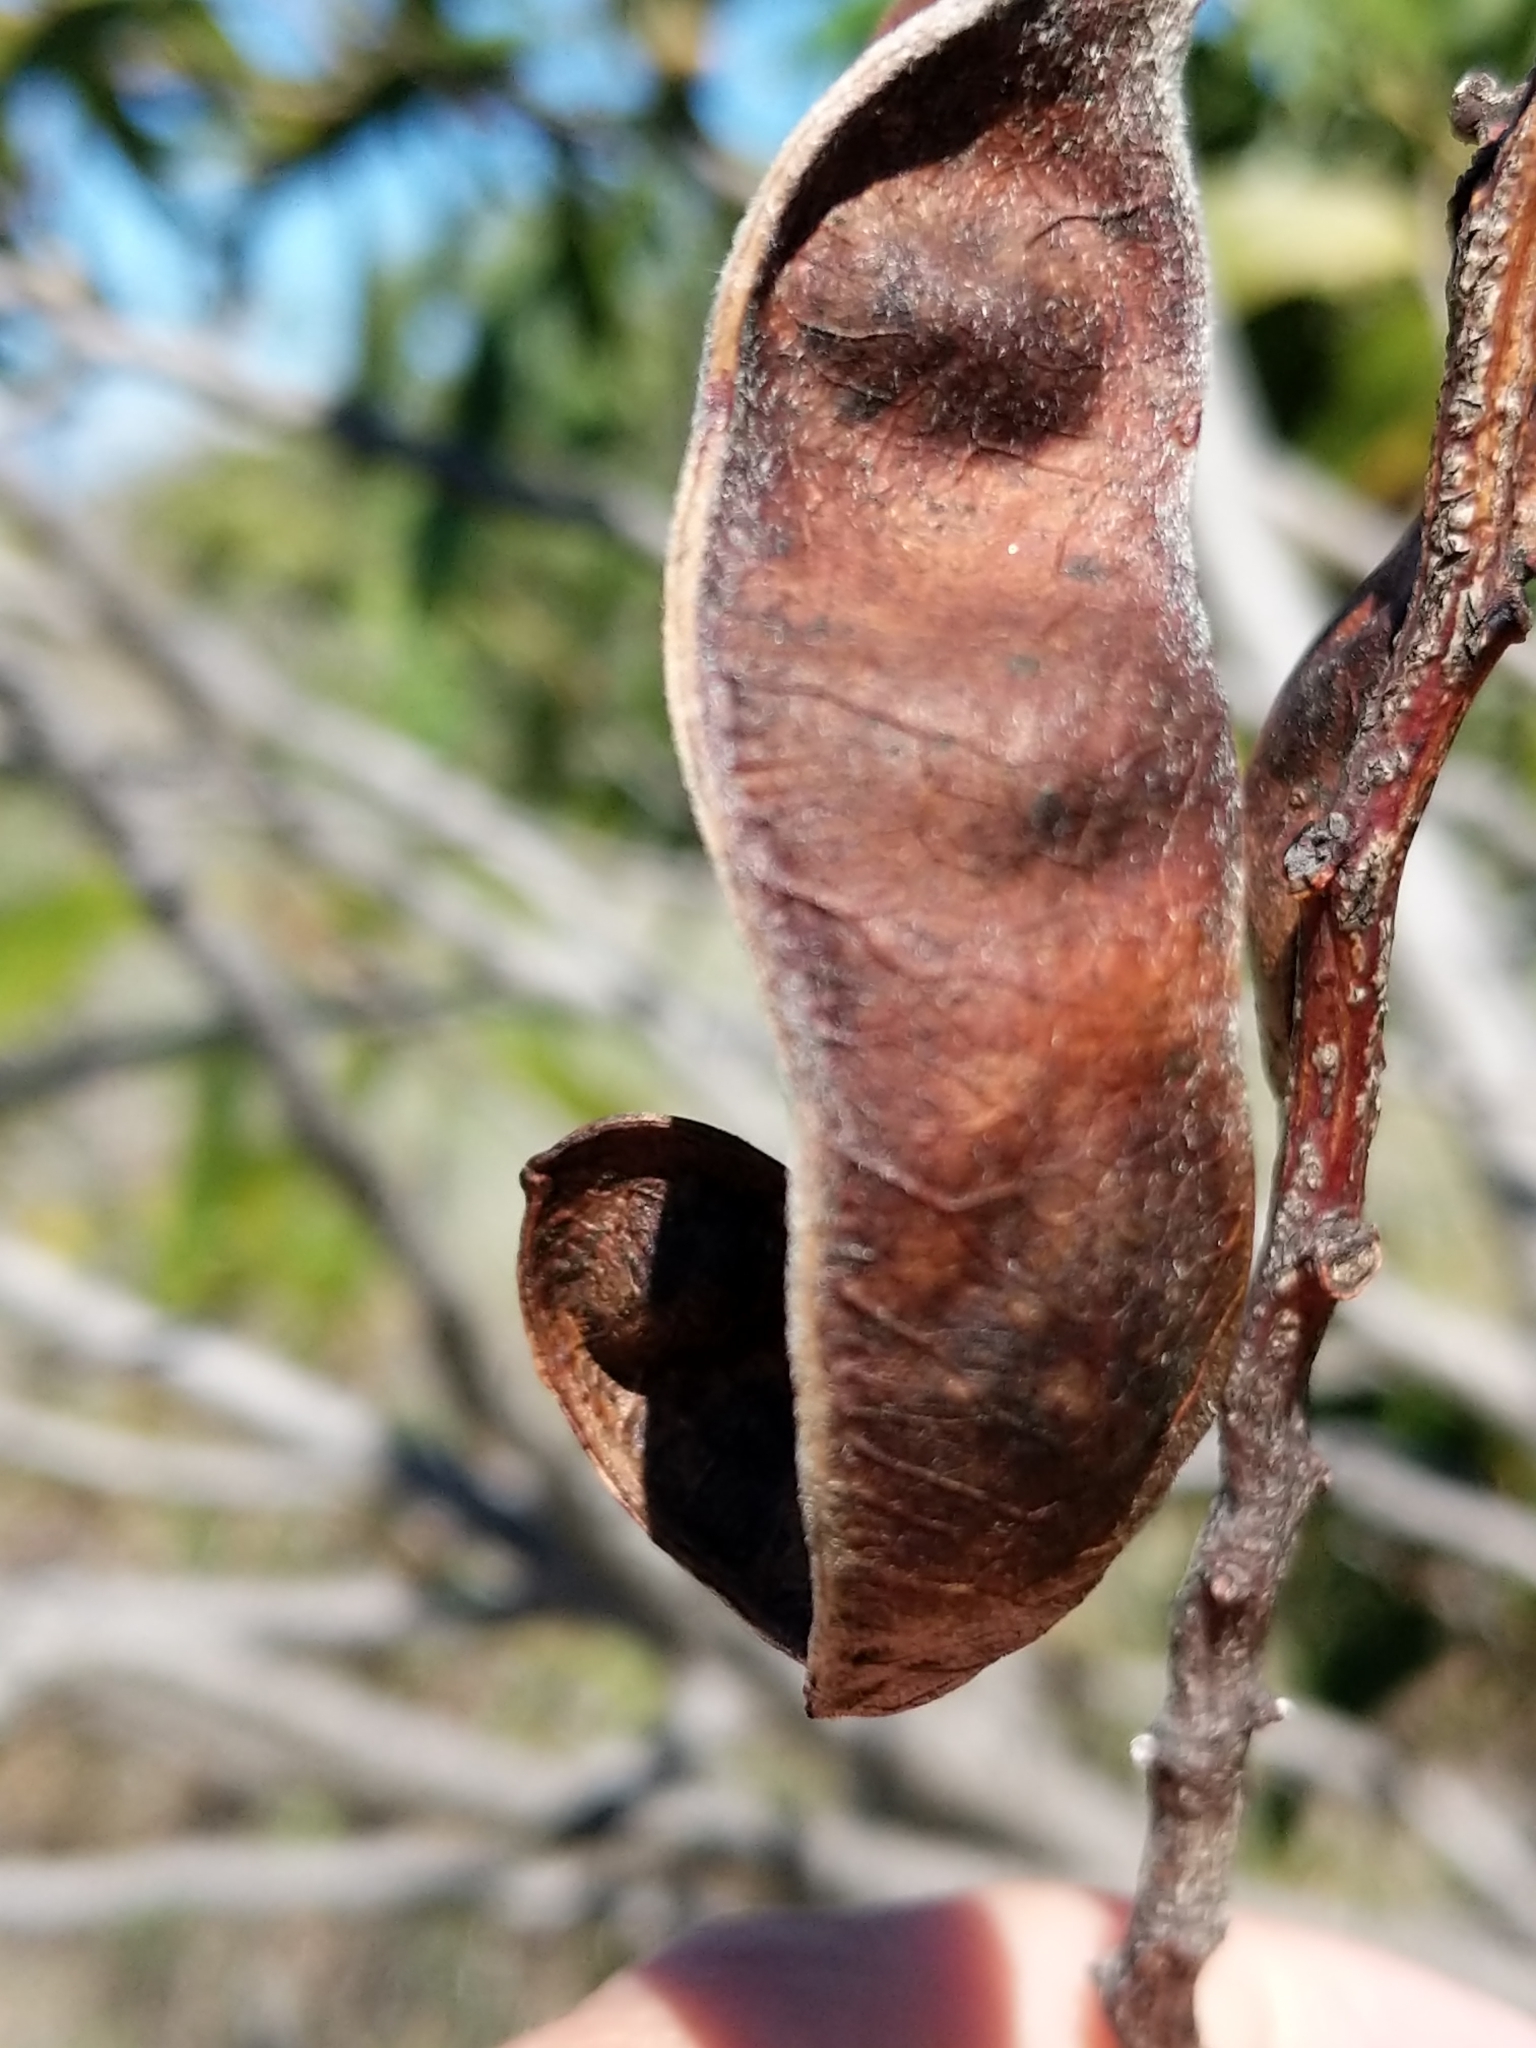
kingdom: Plantae
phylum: Tracheophyta
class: Magnoliopsida
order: Fabales
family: Fabaceae
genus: Acacia
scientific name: Acacia koa
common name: Gray koa
